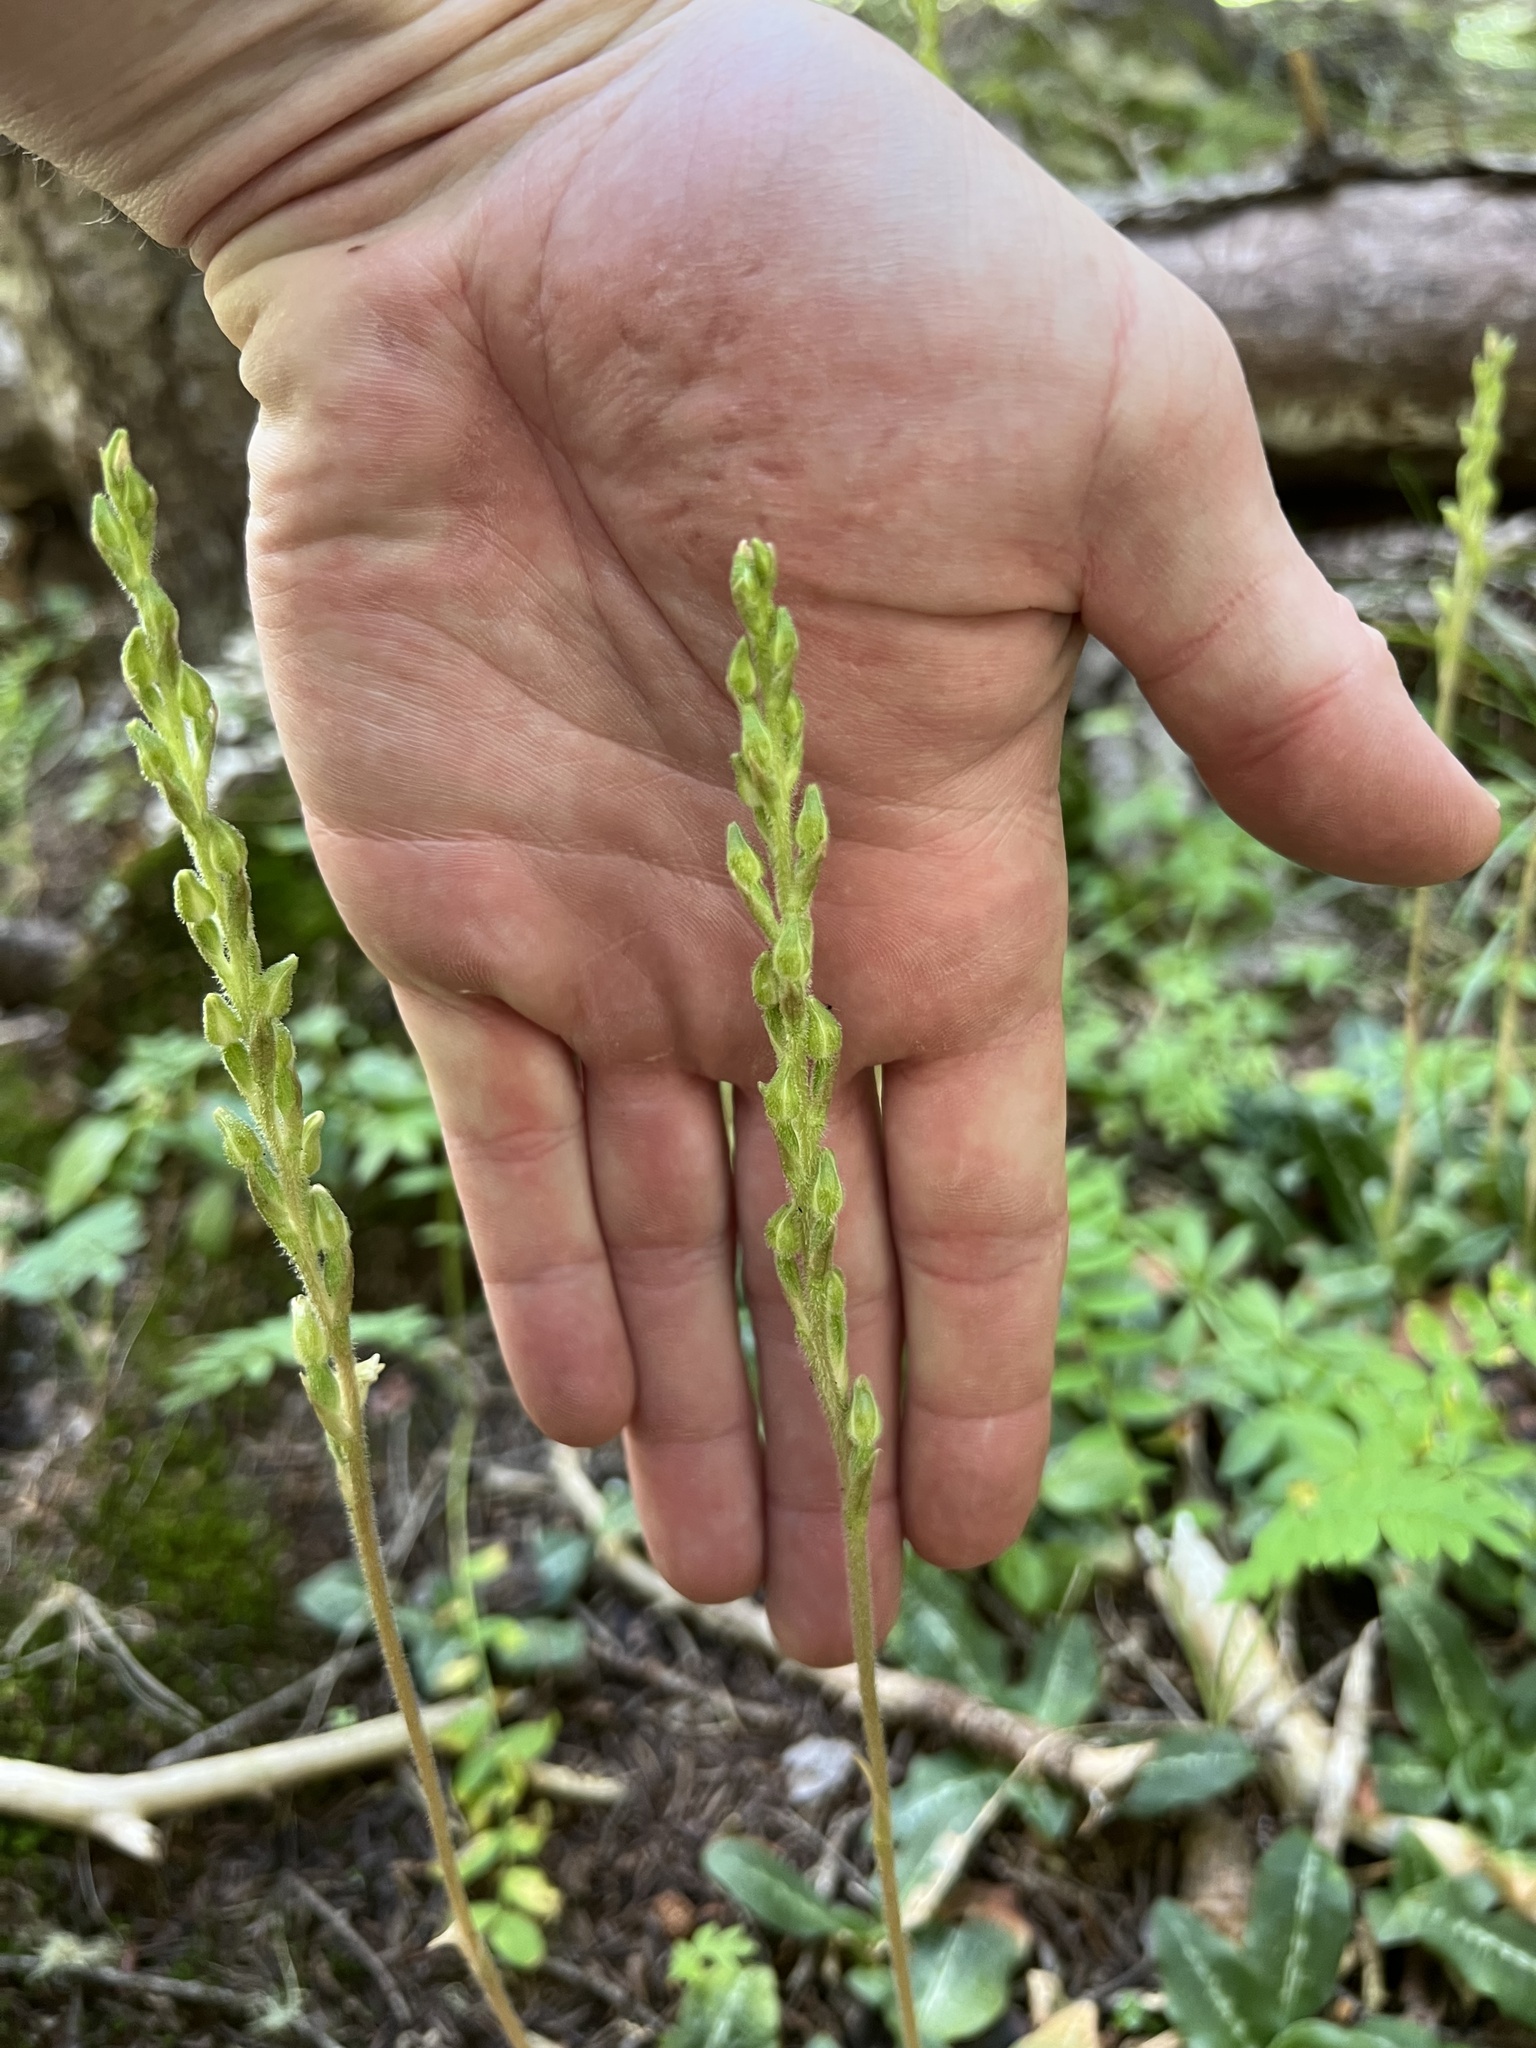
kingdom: Plantae
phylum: Tracheophyta
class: Liliopsida
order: Asparagales
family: Orchidaceae
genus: Goodyera
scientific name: Goodyera oblongifolia
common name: Giant rattlesnake-plantain
